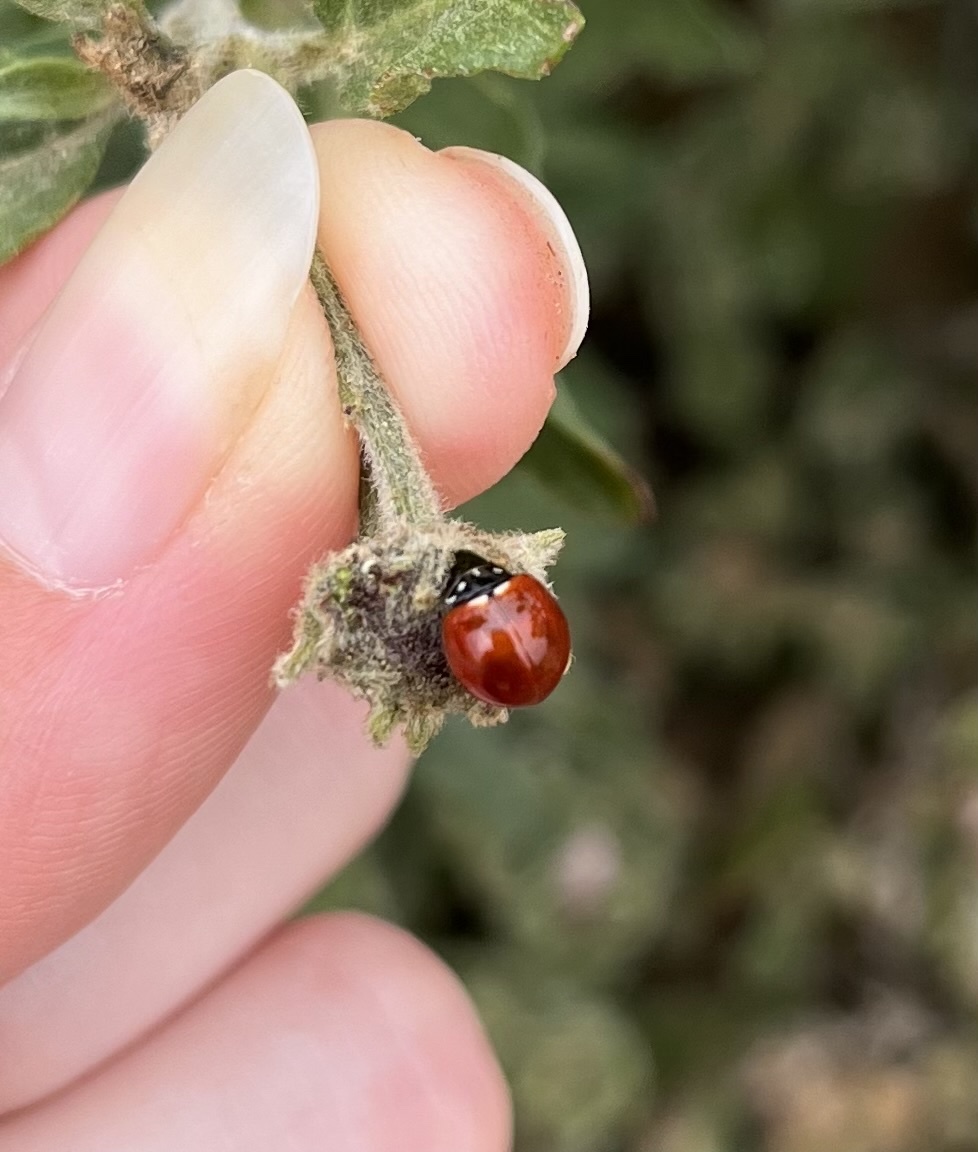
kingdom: Animalia
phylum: Arthropoda
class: Insecta
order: Coleoptera
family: Coccinellidae
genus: Cycloneda
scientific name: Cycloneda sanguinea
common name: Ladybird beetle
